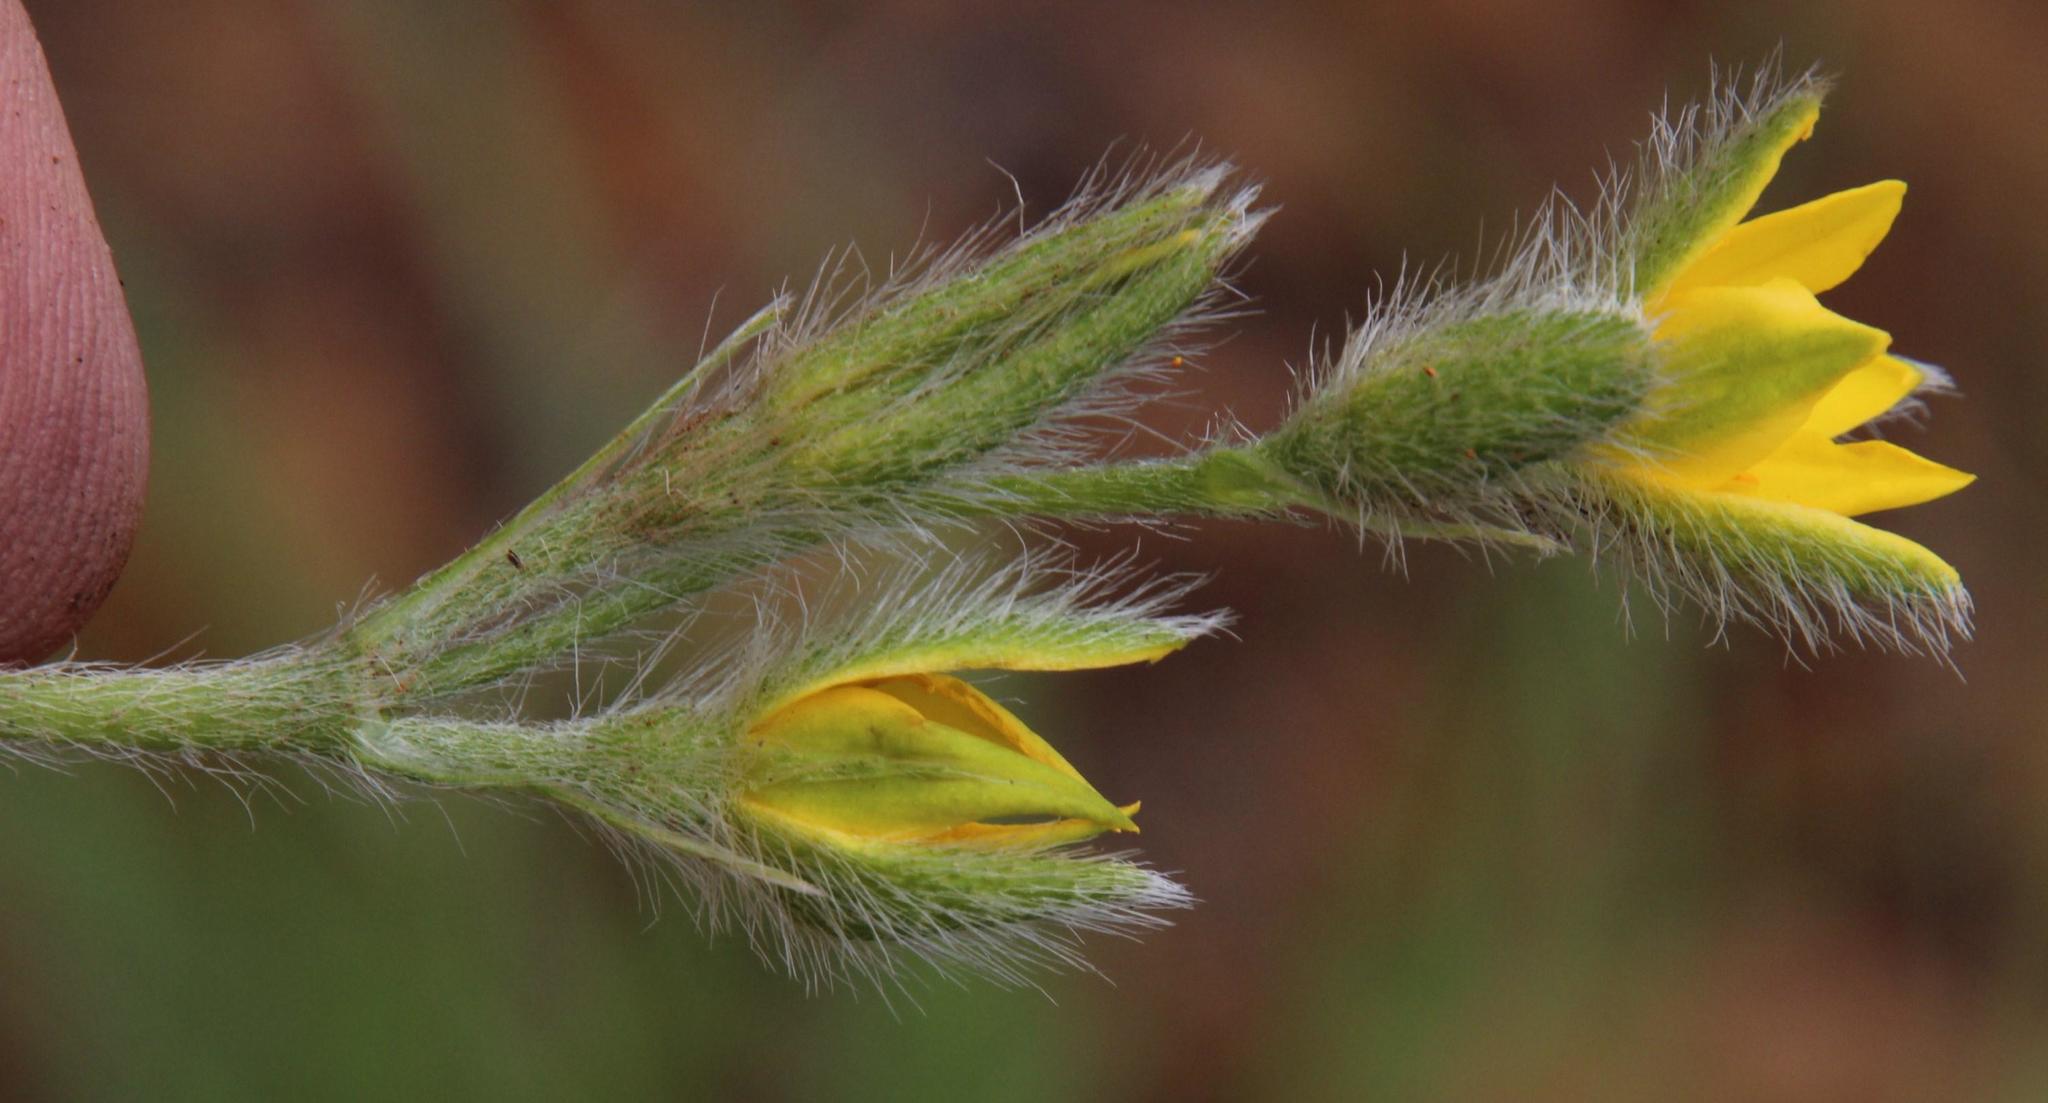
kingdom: Plantae
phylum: Tracheophyta
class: Liliopsida
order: Asparagales
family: Hypoxidaceae
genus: Hypoxis
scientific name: Hypoxis rigidula
